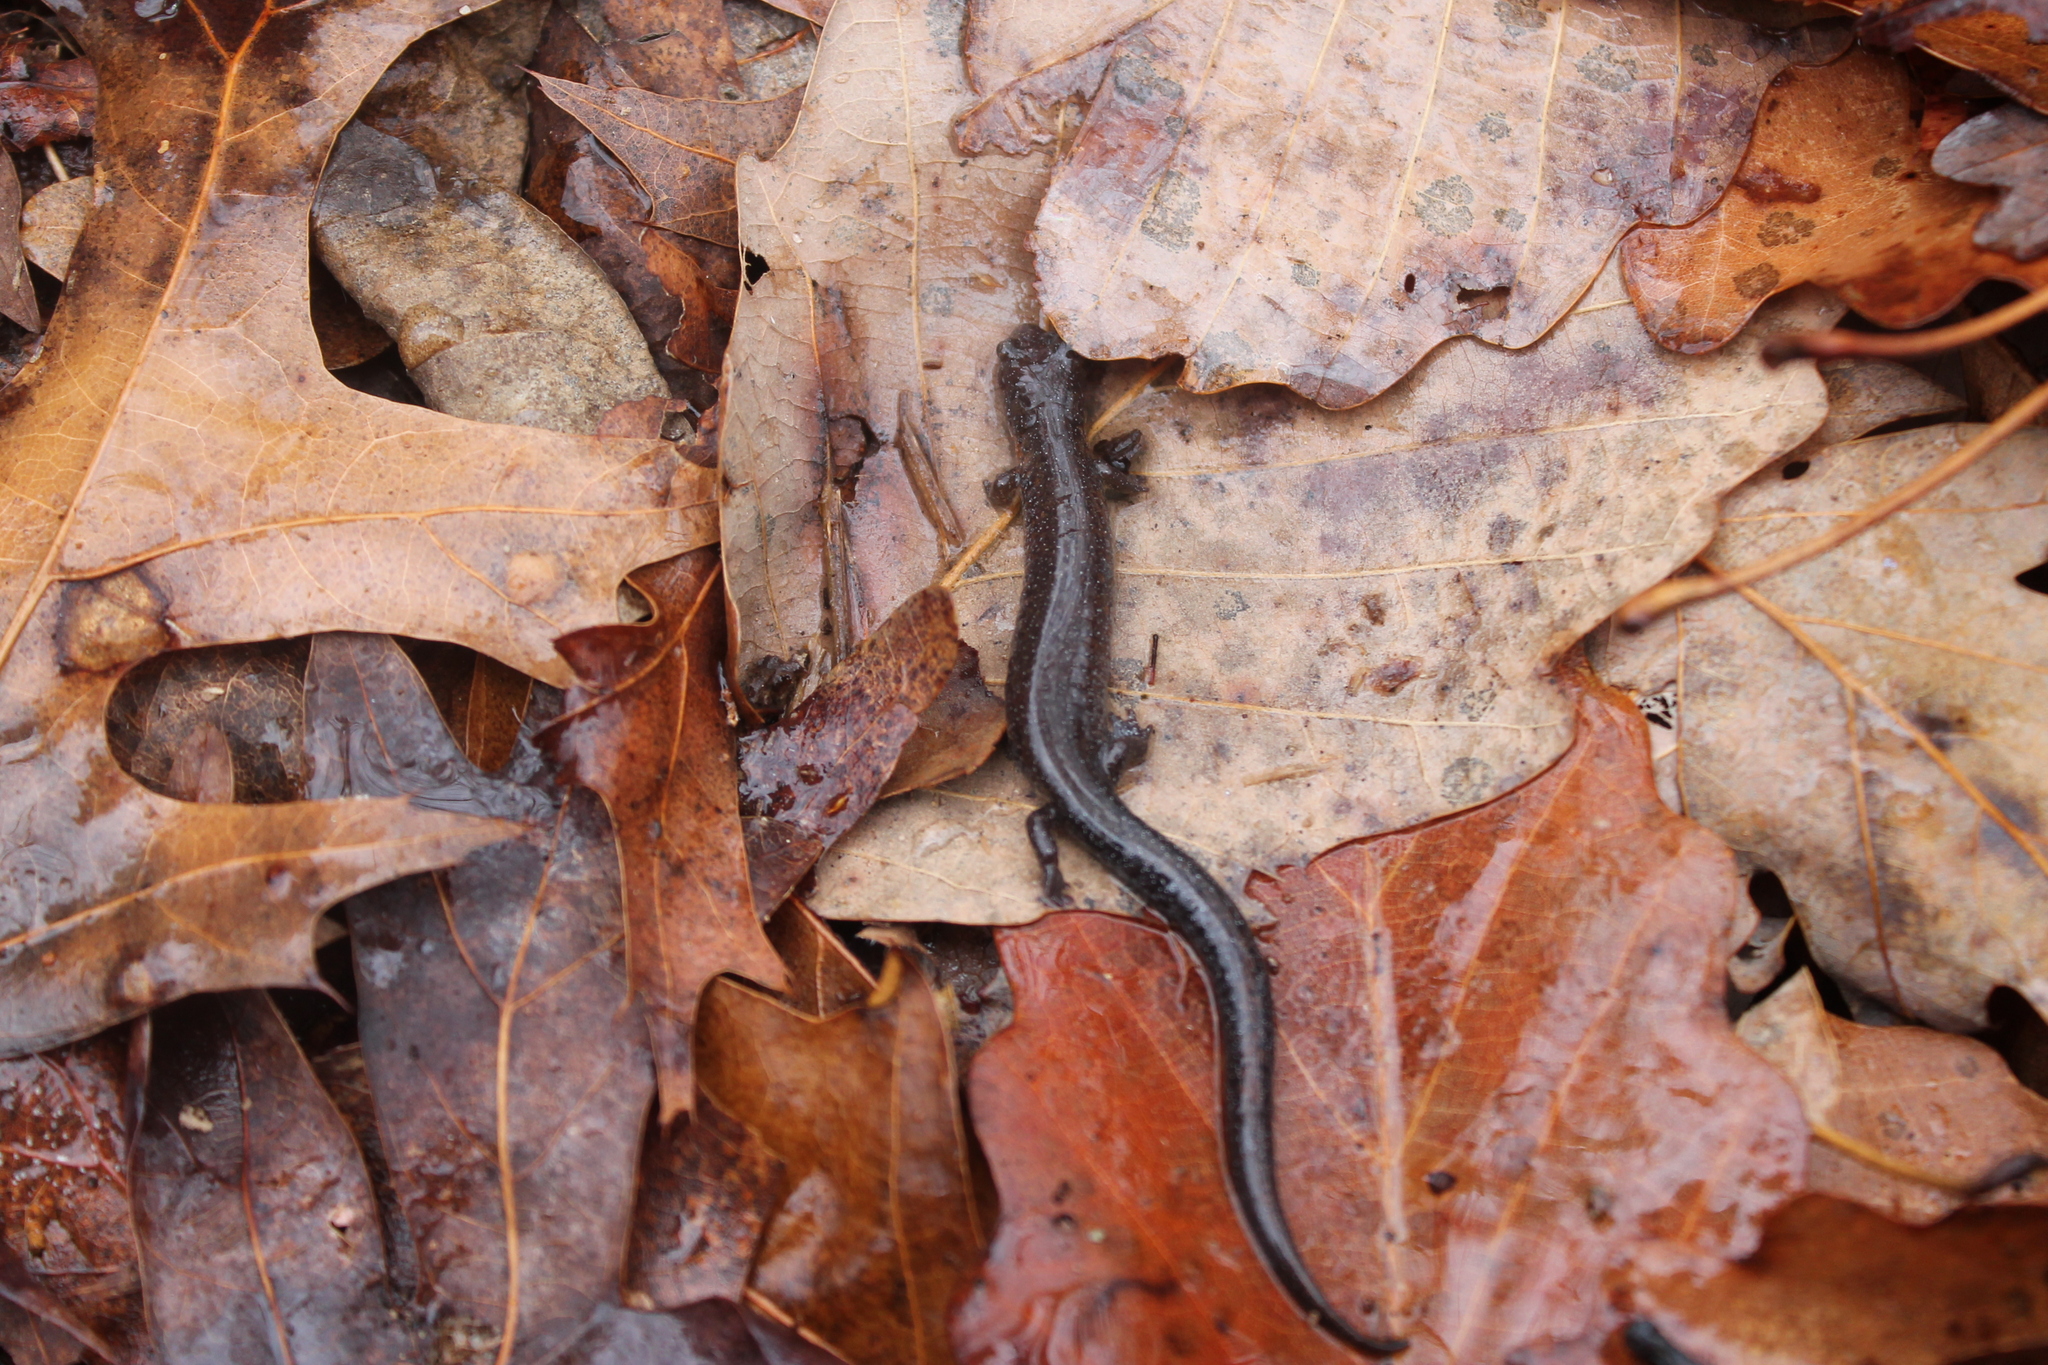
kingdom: Animalia
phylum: Chordata
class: Amphibia
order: Caudata
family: Plethodontidae
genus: Plethodon
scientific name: Plethodon dorsalis
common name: Northern zigzag salamander
